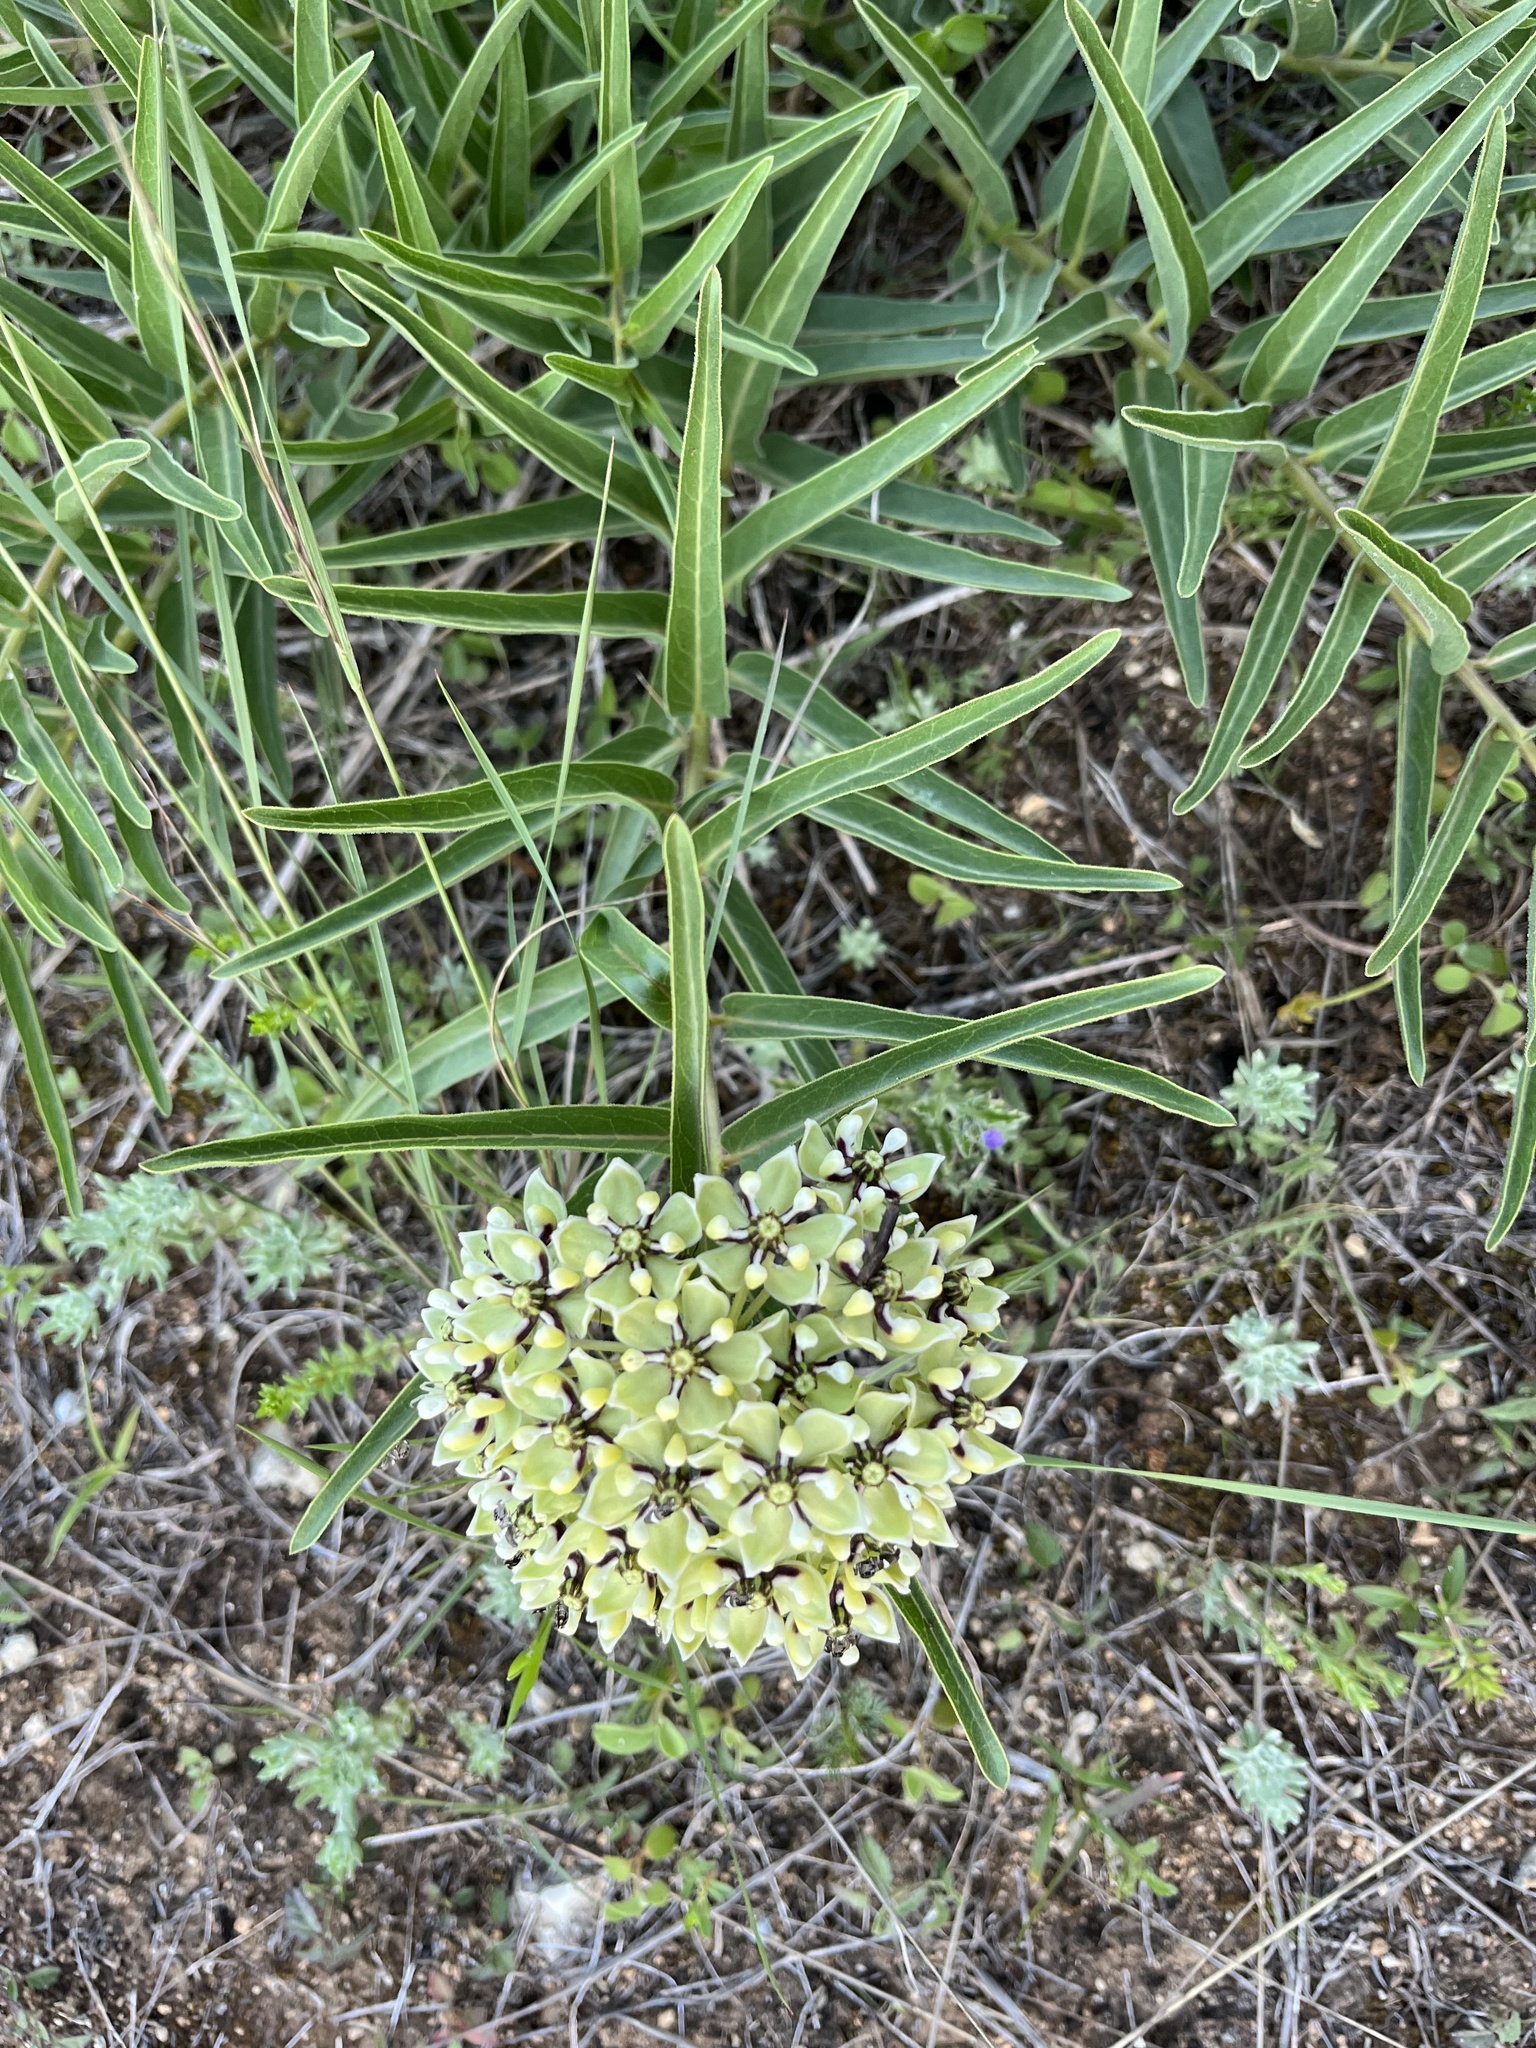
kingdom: Plantae
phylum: Tracheophyta
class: Magnoliopsida
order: Gentianales
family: Apocynaceae
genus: Asclepias
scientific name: Asclepias asperula
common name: Antelope horns
